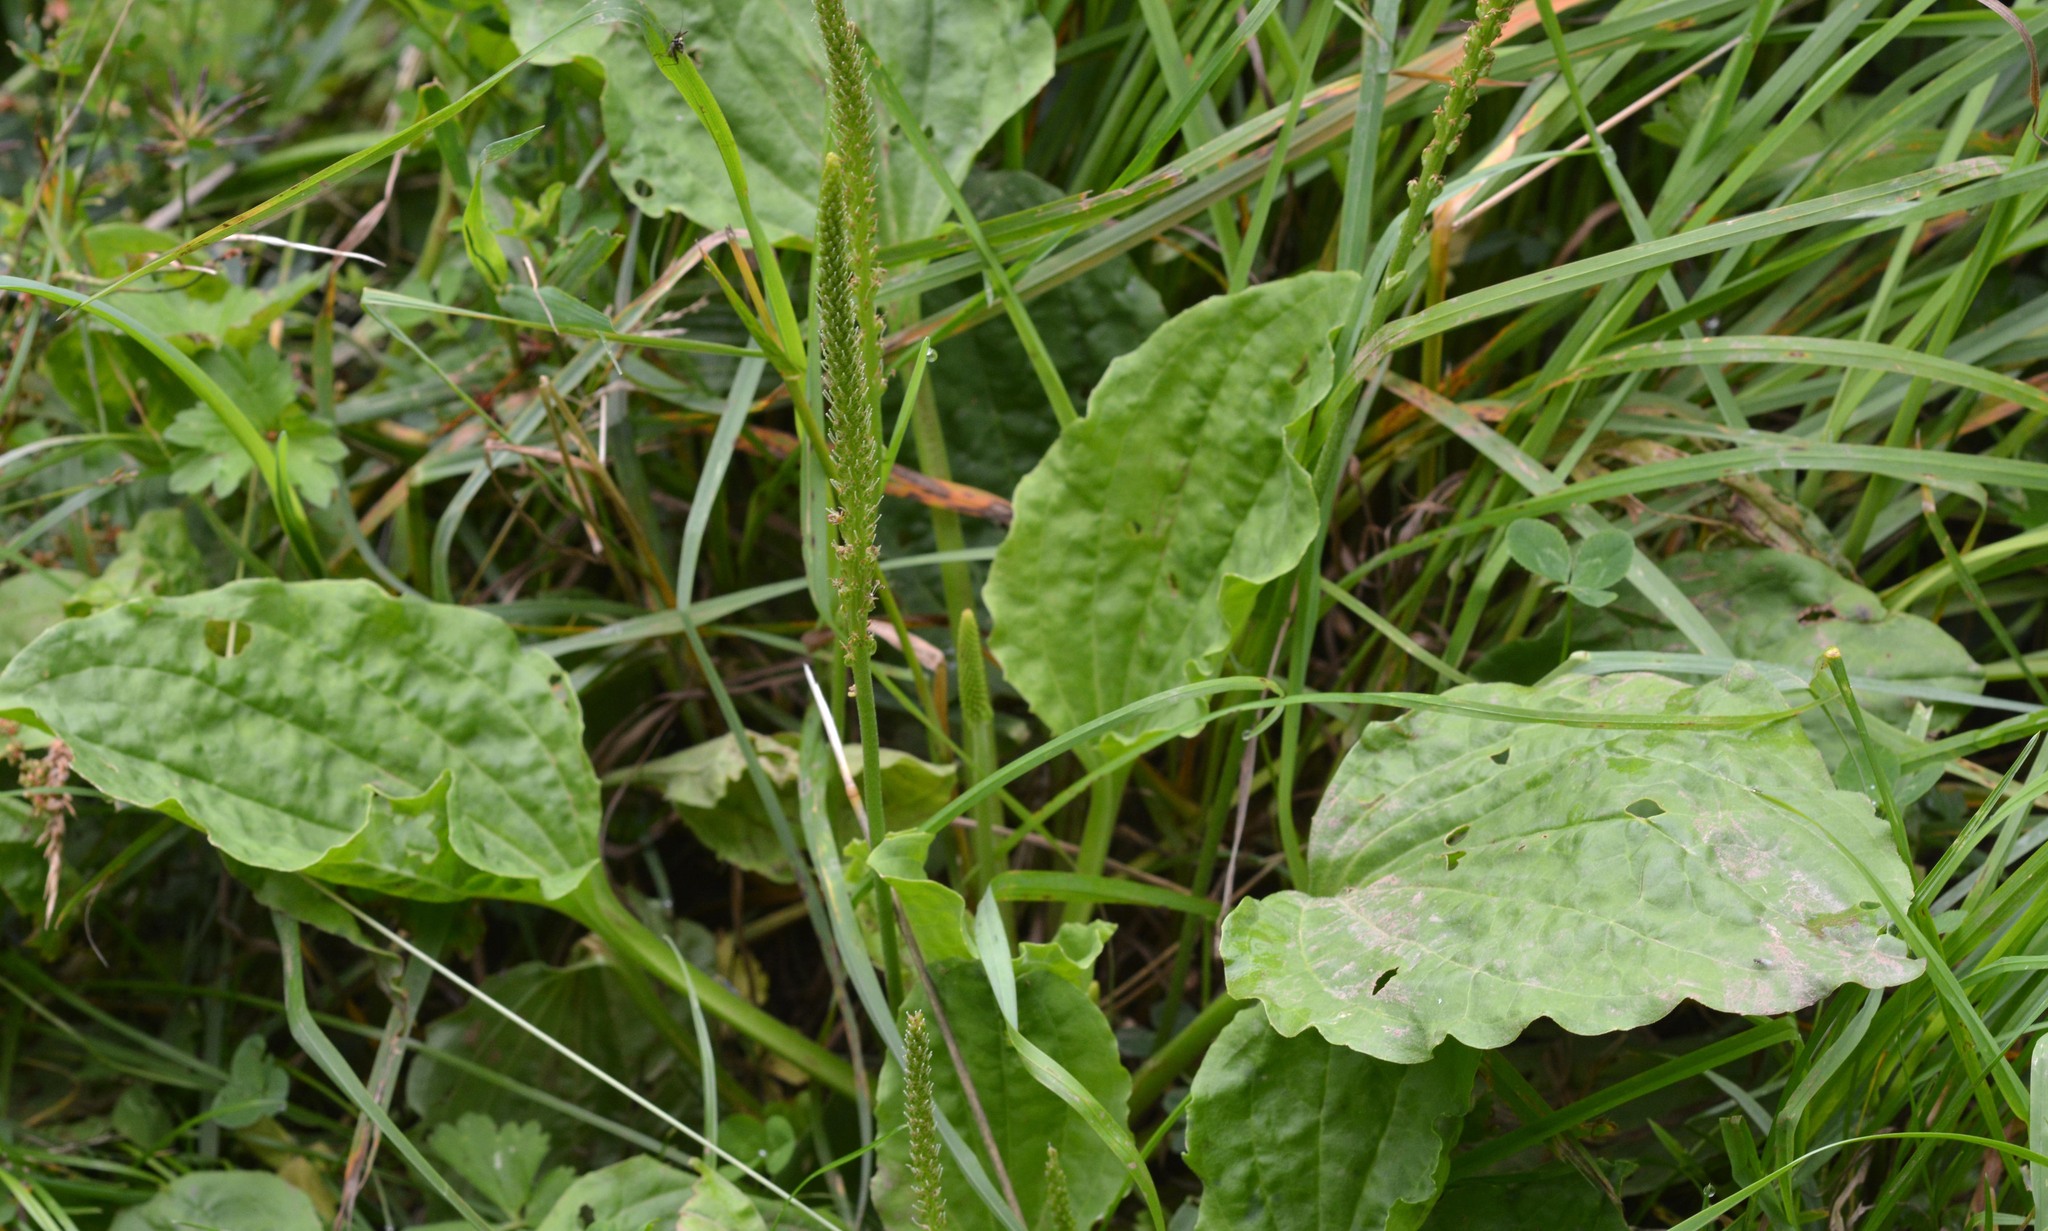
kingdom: Plantae
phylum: Tracheophyta
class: Magnoliopsida
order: Lamiales
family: Plantaginaceae
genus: Plantago
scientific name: Plantago major
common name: Common plantain
